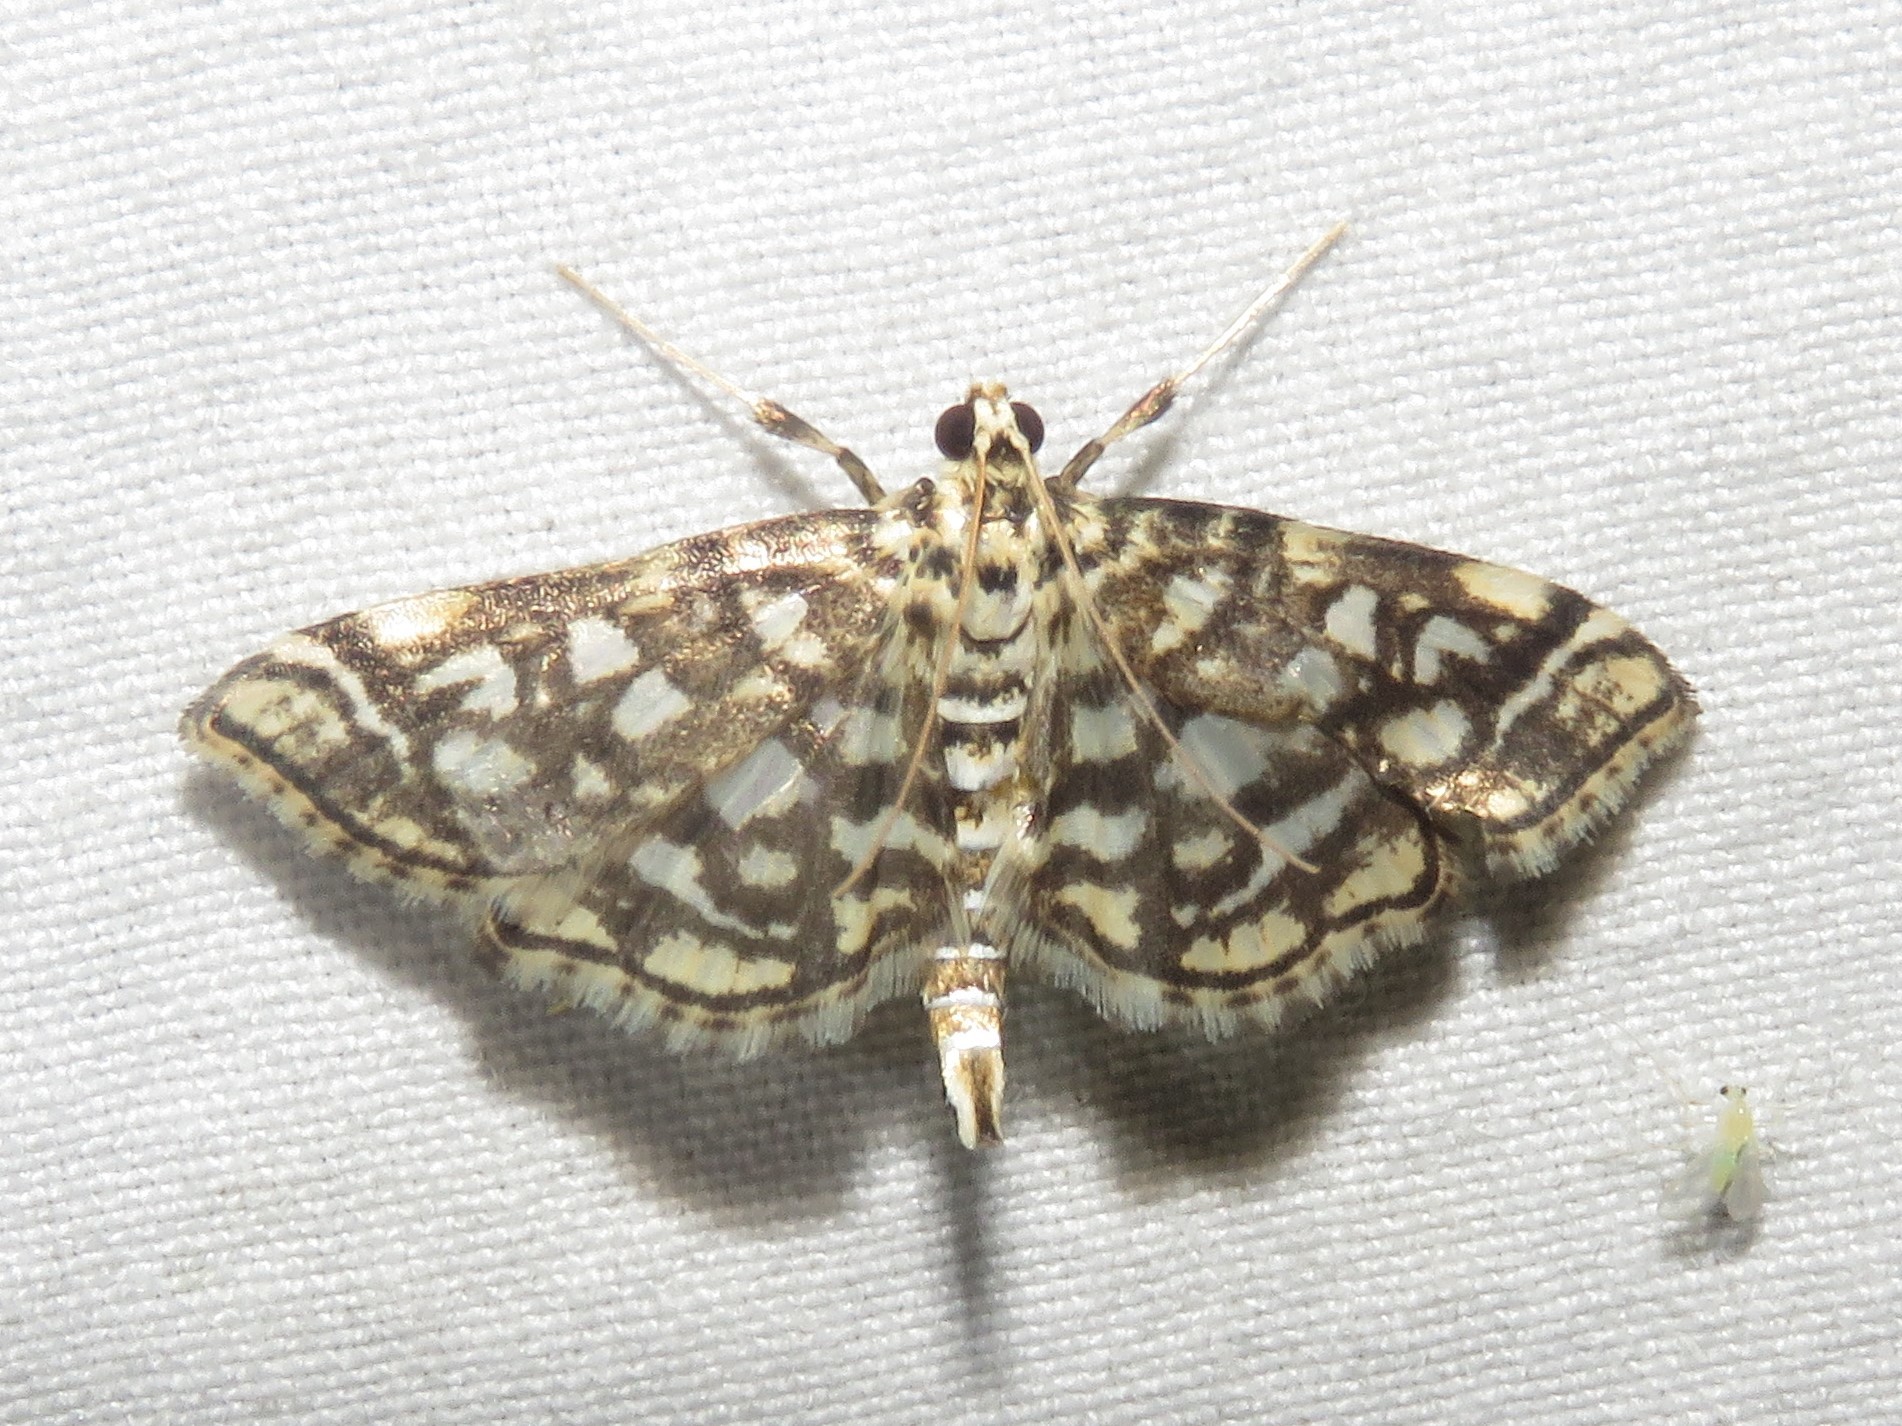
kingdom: Animalia
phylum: Arthropoda
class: Insecta
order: Lepidoptera
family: Crambidae
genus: Lygropia
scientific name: Lygropia rivulalis
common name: Bog lygropia moth
